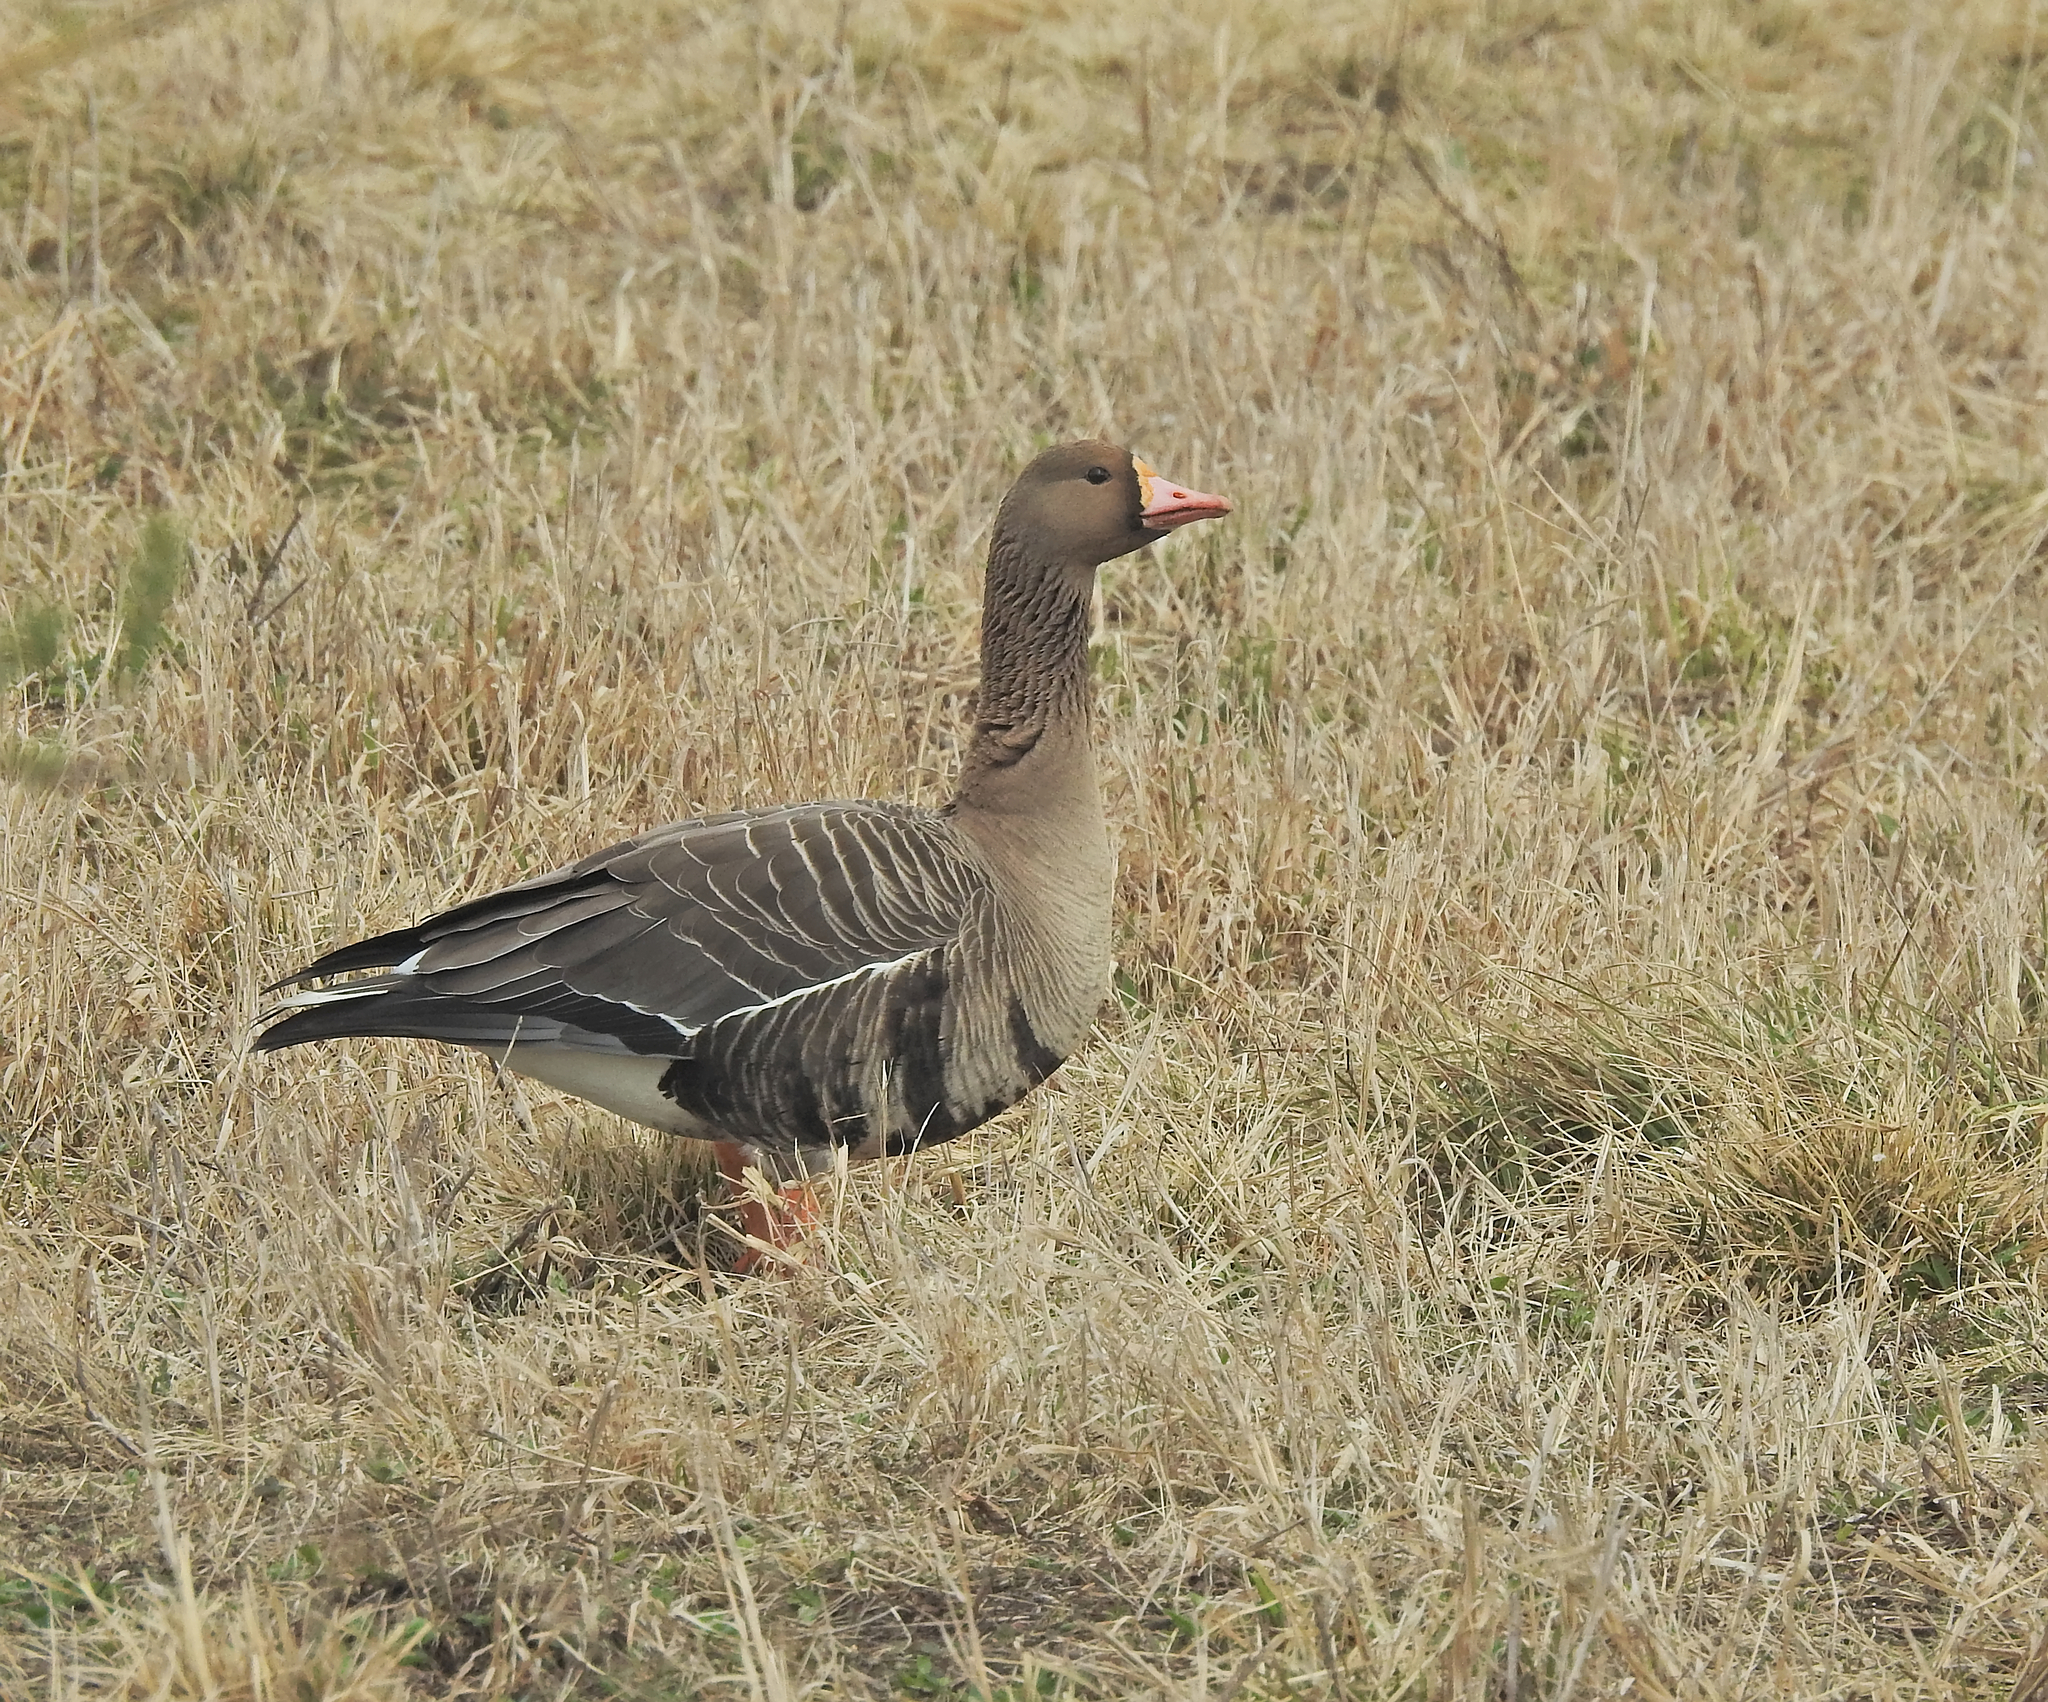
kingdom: Animalia
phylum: Chordata
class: Aves
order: Anseriformes
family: Anatidae
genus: Anser
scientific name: Anser albifrons
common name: Greater white-fronted goose
